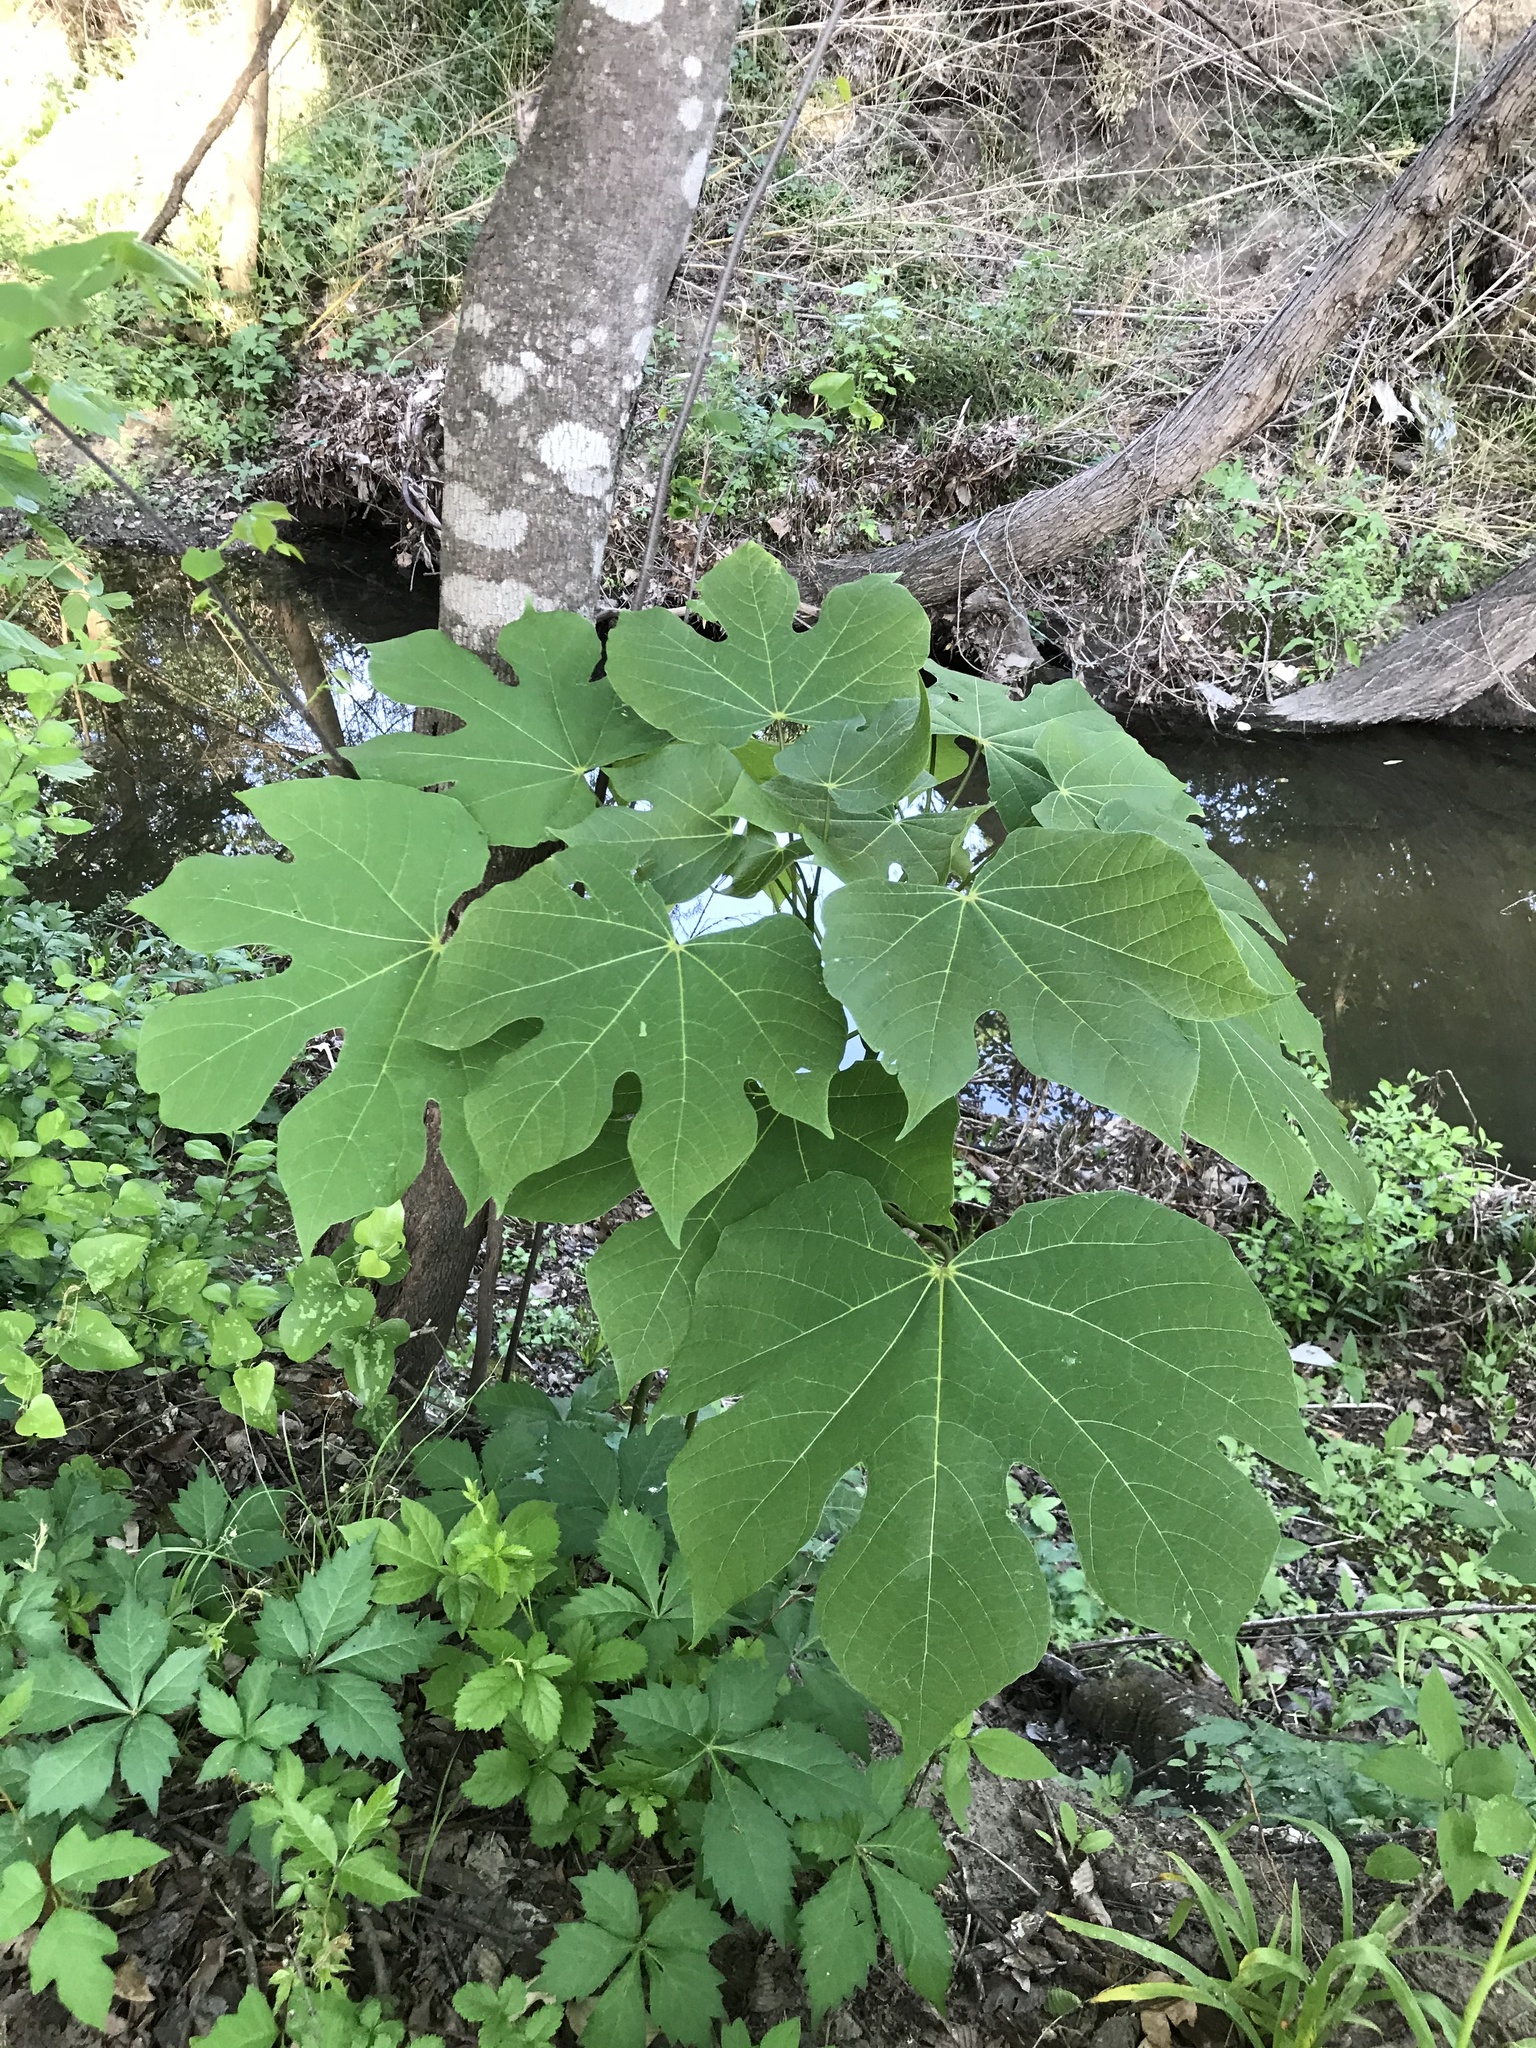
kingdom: Plantae
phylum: Tracheophyta
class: Magnoliopsida
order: Malvales
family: Malvaceae
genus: Firmiana
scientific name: Firmiana simplex
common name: Chinese parasoltree
